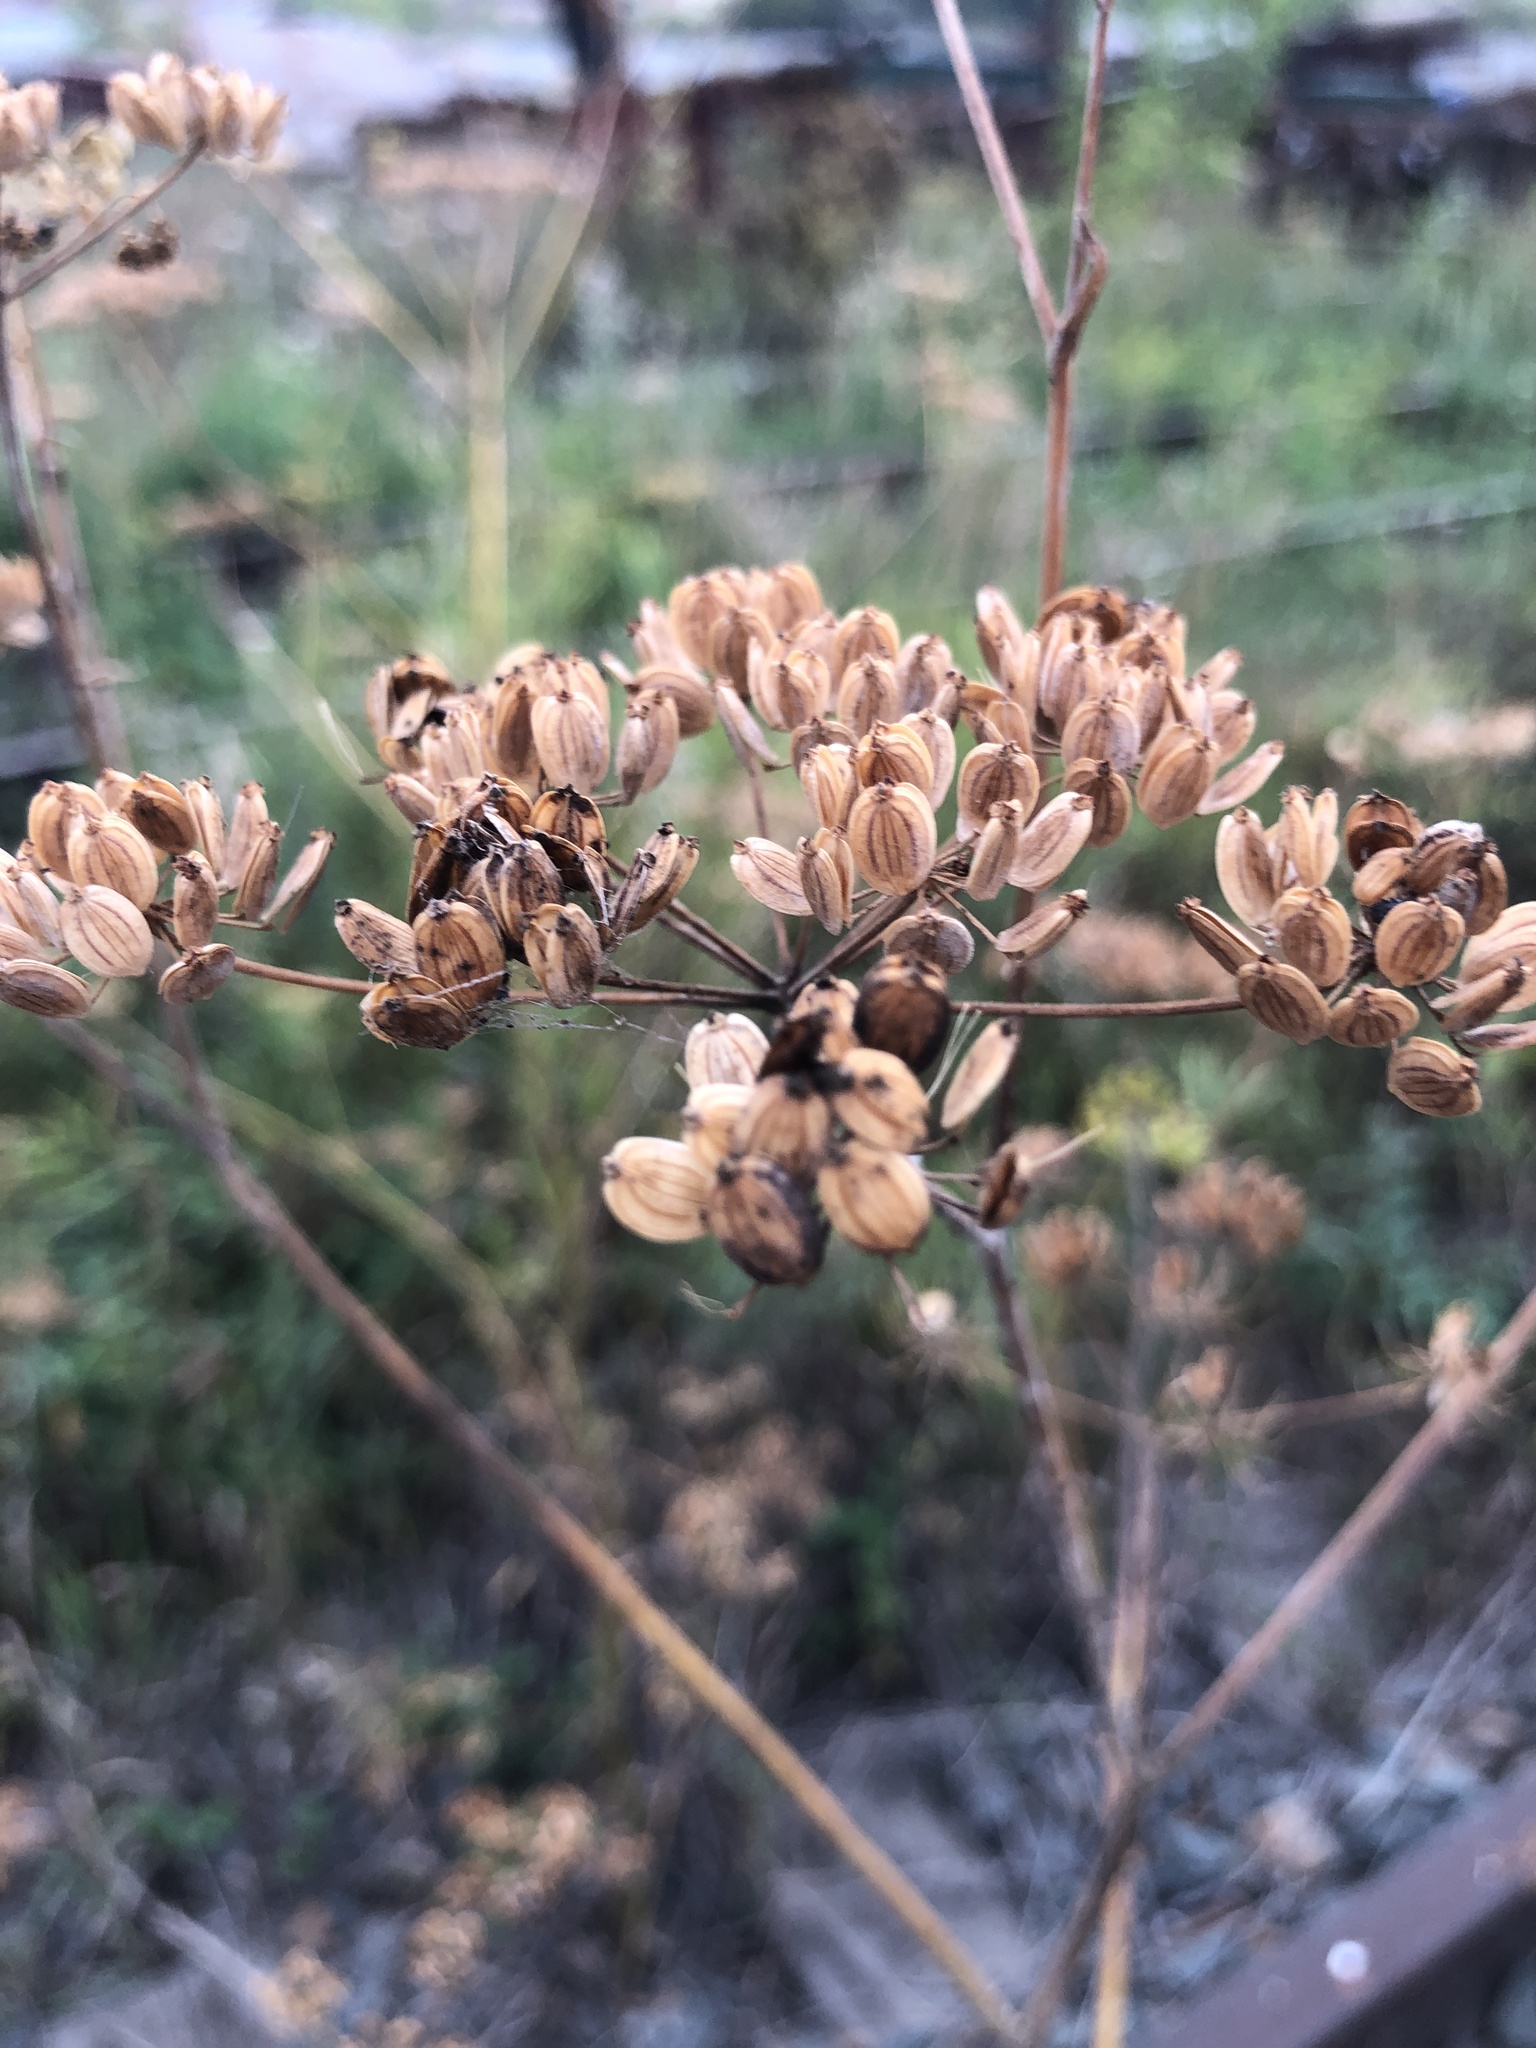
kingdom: Plantae
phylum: Tracheophyta
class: Magnoliopsida
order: Apiales
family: Apiaceae
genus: Pastinaca
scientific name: Pastinaca sativa
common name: Wild parsnip
